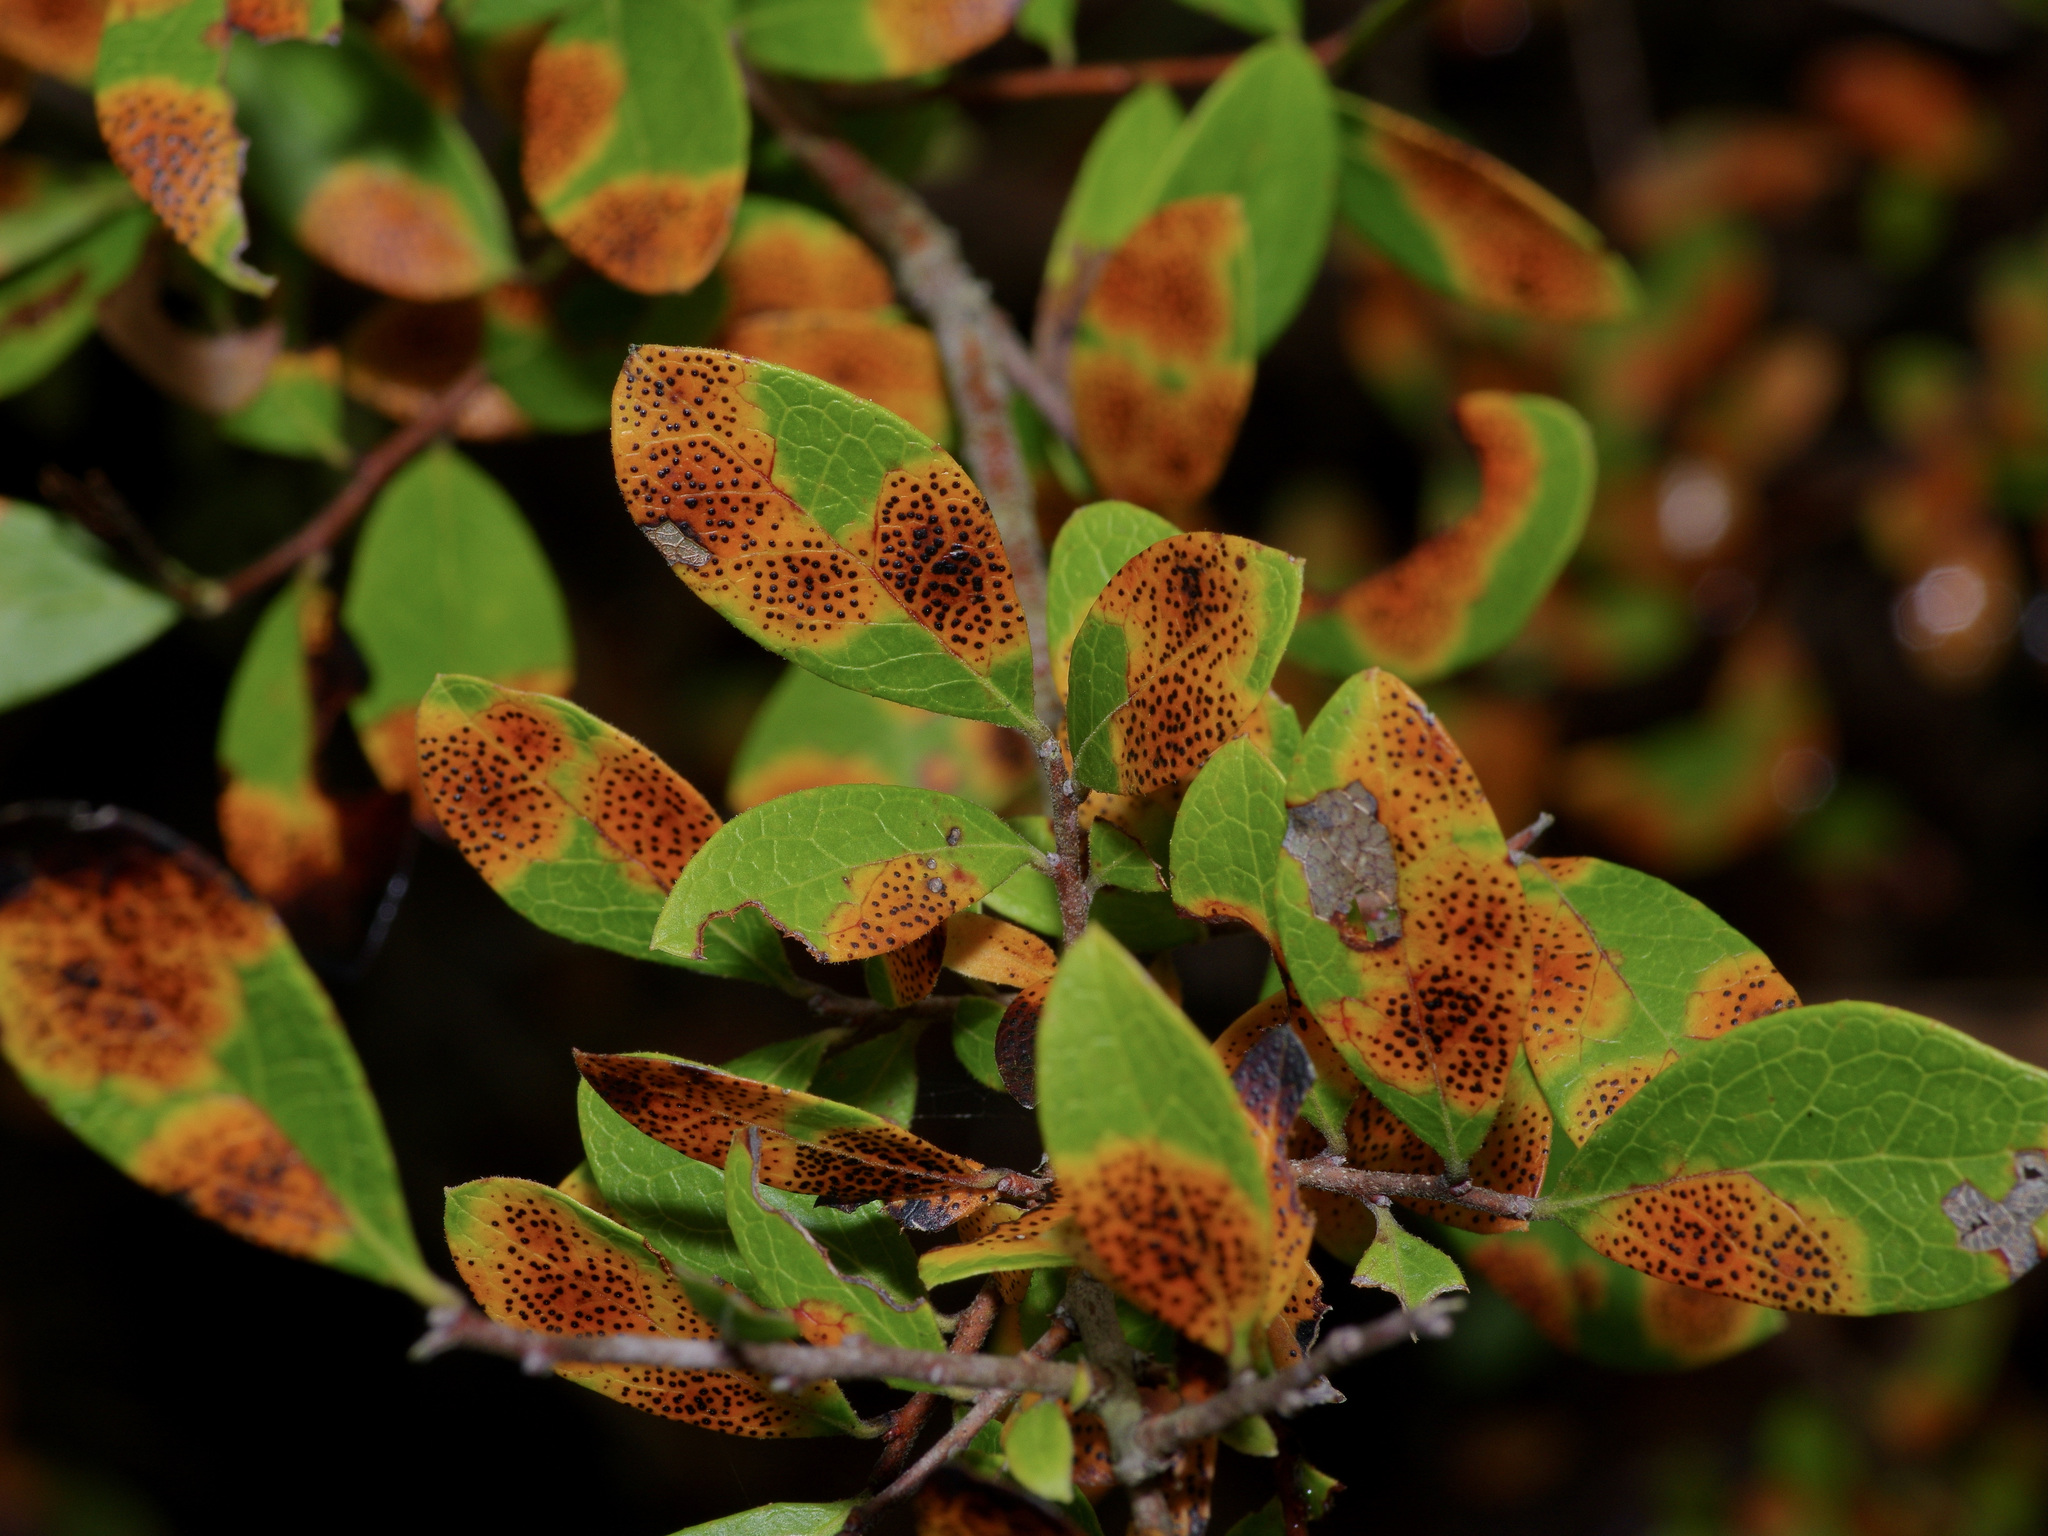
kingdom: Plantae
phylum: Tracheophyta
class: Magnoliopsida
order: Ericales
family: Ericaceae
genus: Vaccinium
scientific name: Vaccinium arboreum
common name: Farkleberry
